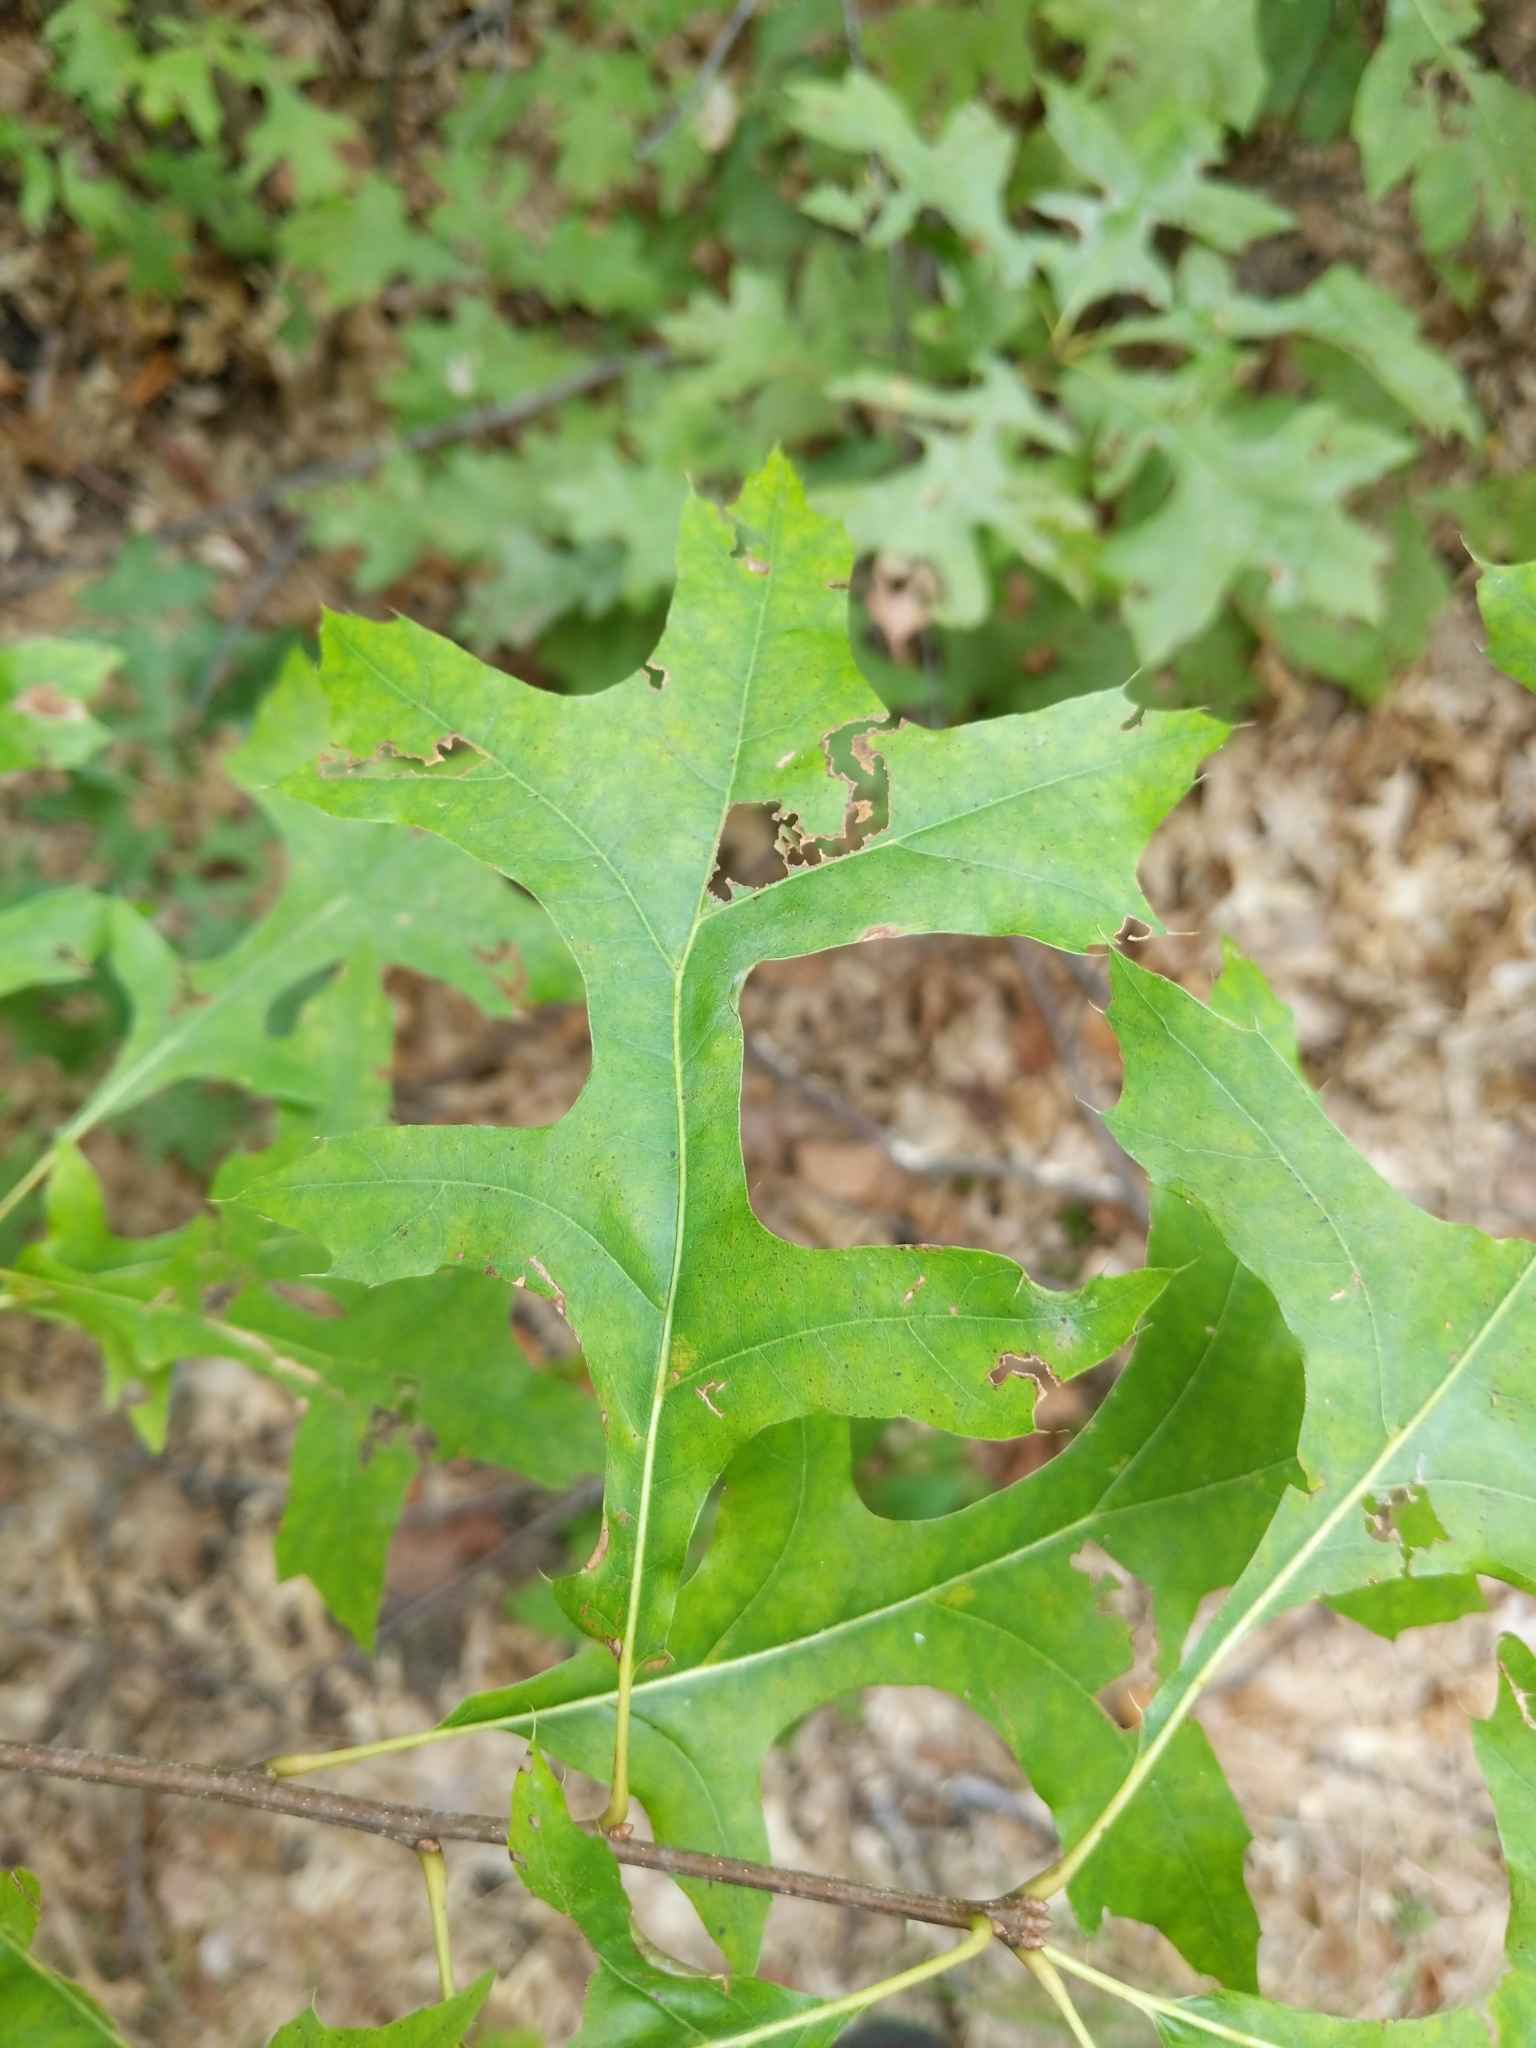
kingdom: Plantae
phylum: Tracheophyta
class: Magnoliopsida
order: Fagales
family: Fagaceae
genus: Quercus
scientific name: Quercus coccinea
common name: Scarlet oak
